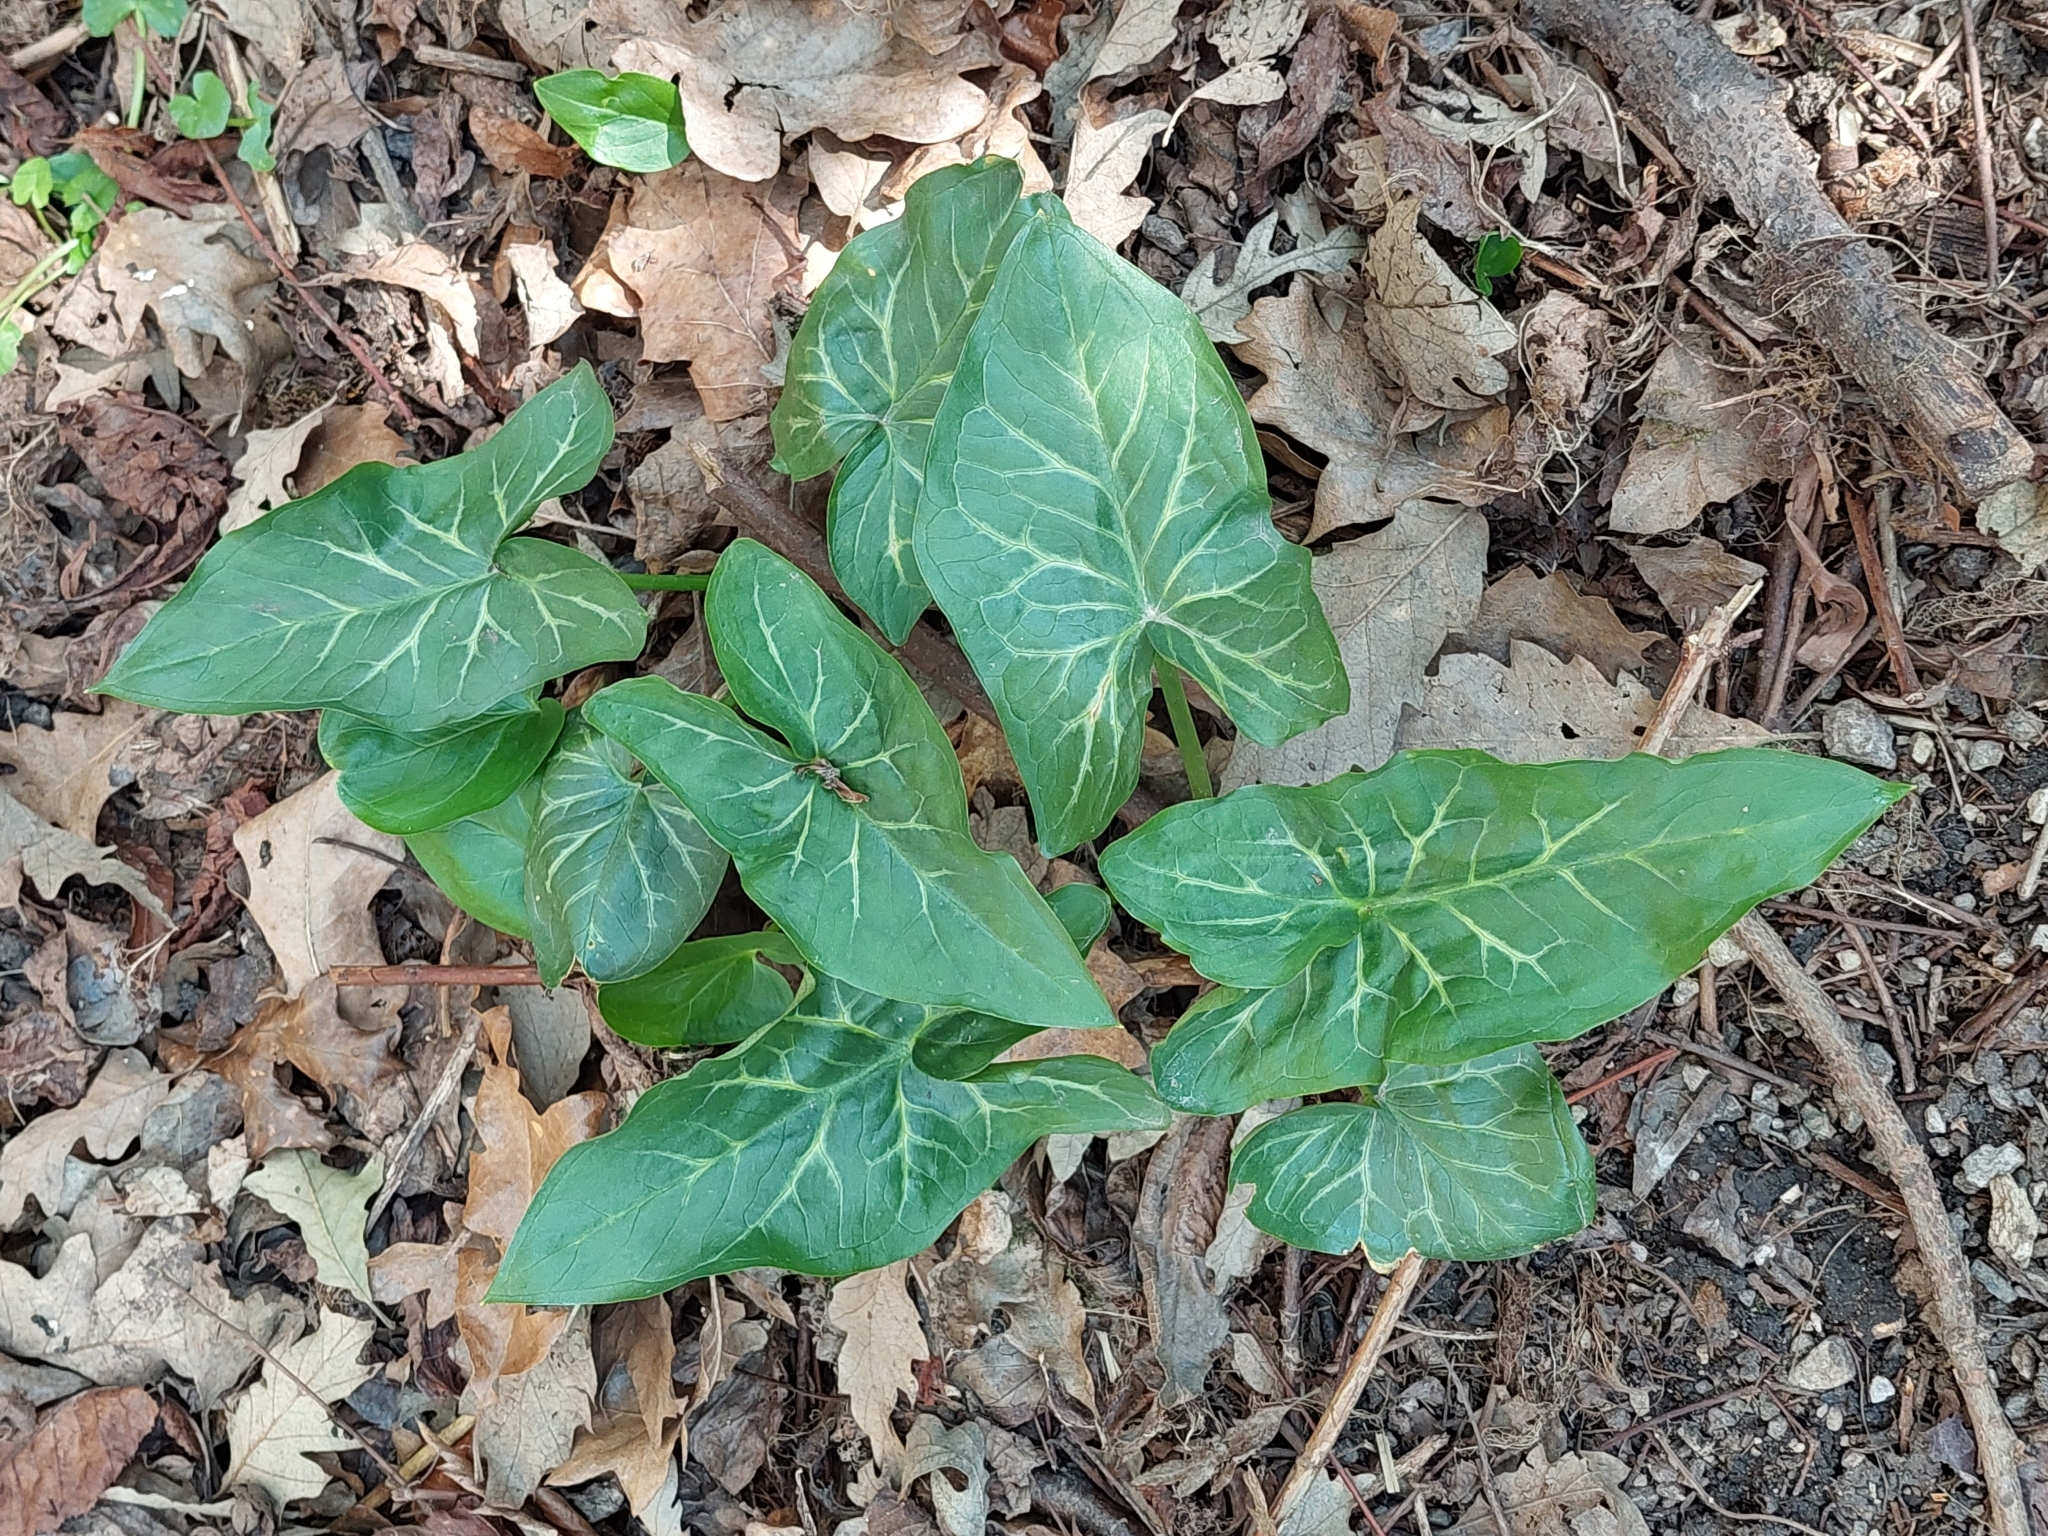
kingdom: Plantae
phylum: Tracheophyta
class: Liliopsida
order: Alismatales
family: Araceae
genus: Arum
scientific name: Arum italicum
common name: Italian lords-and-ladies
